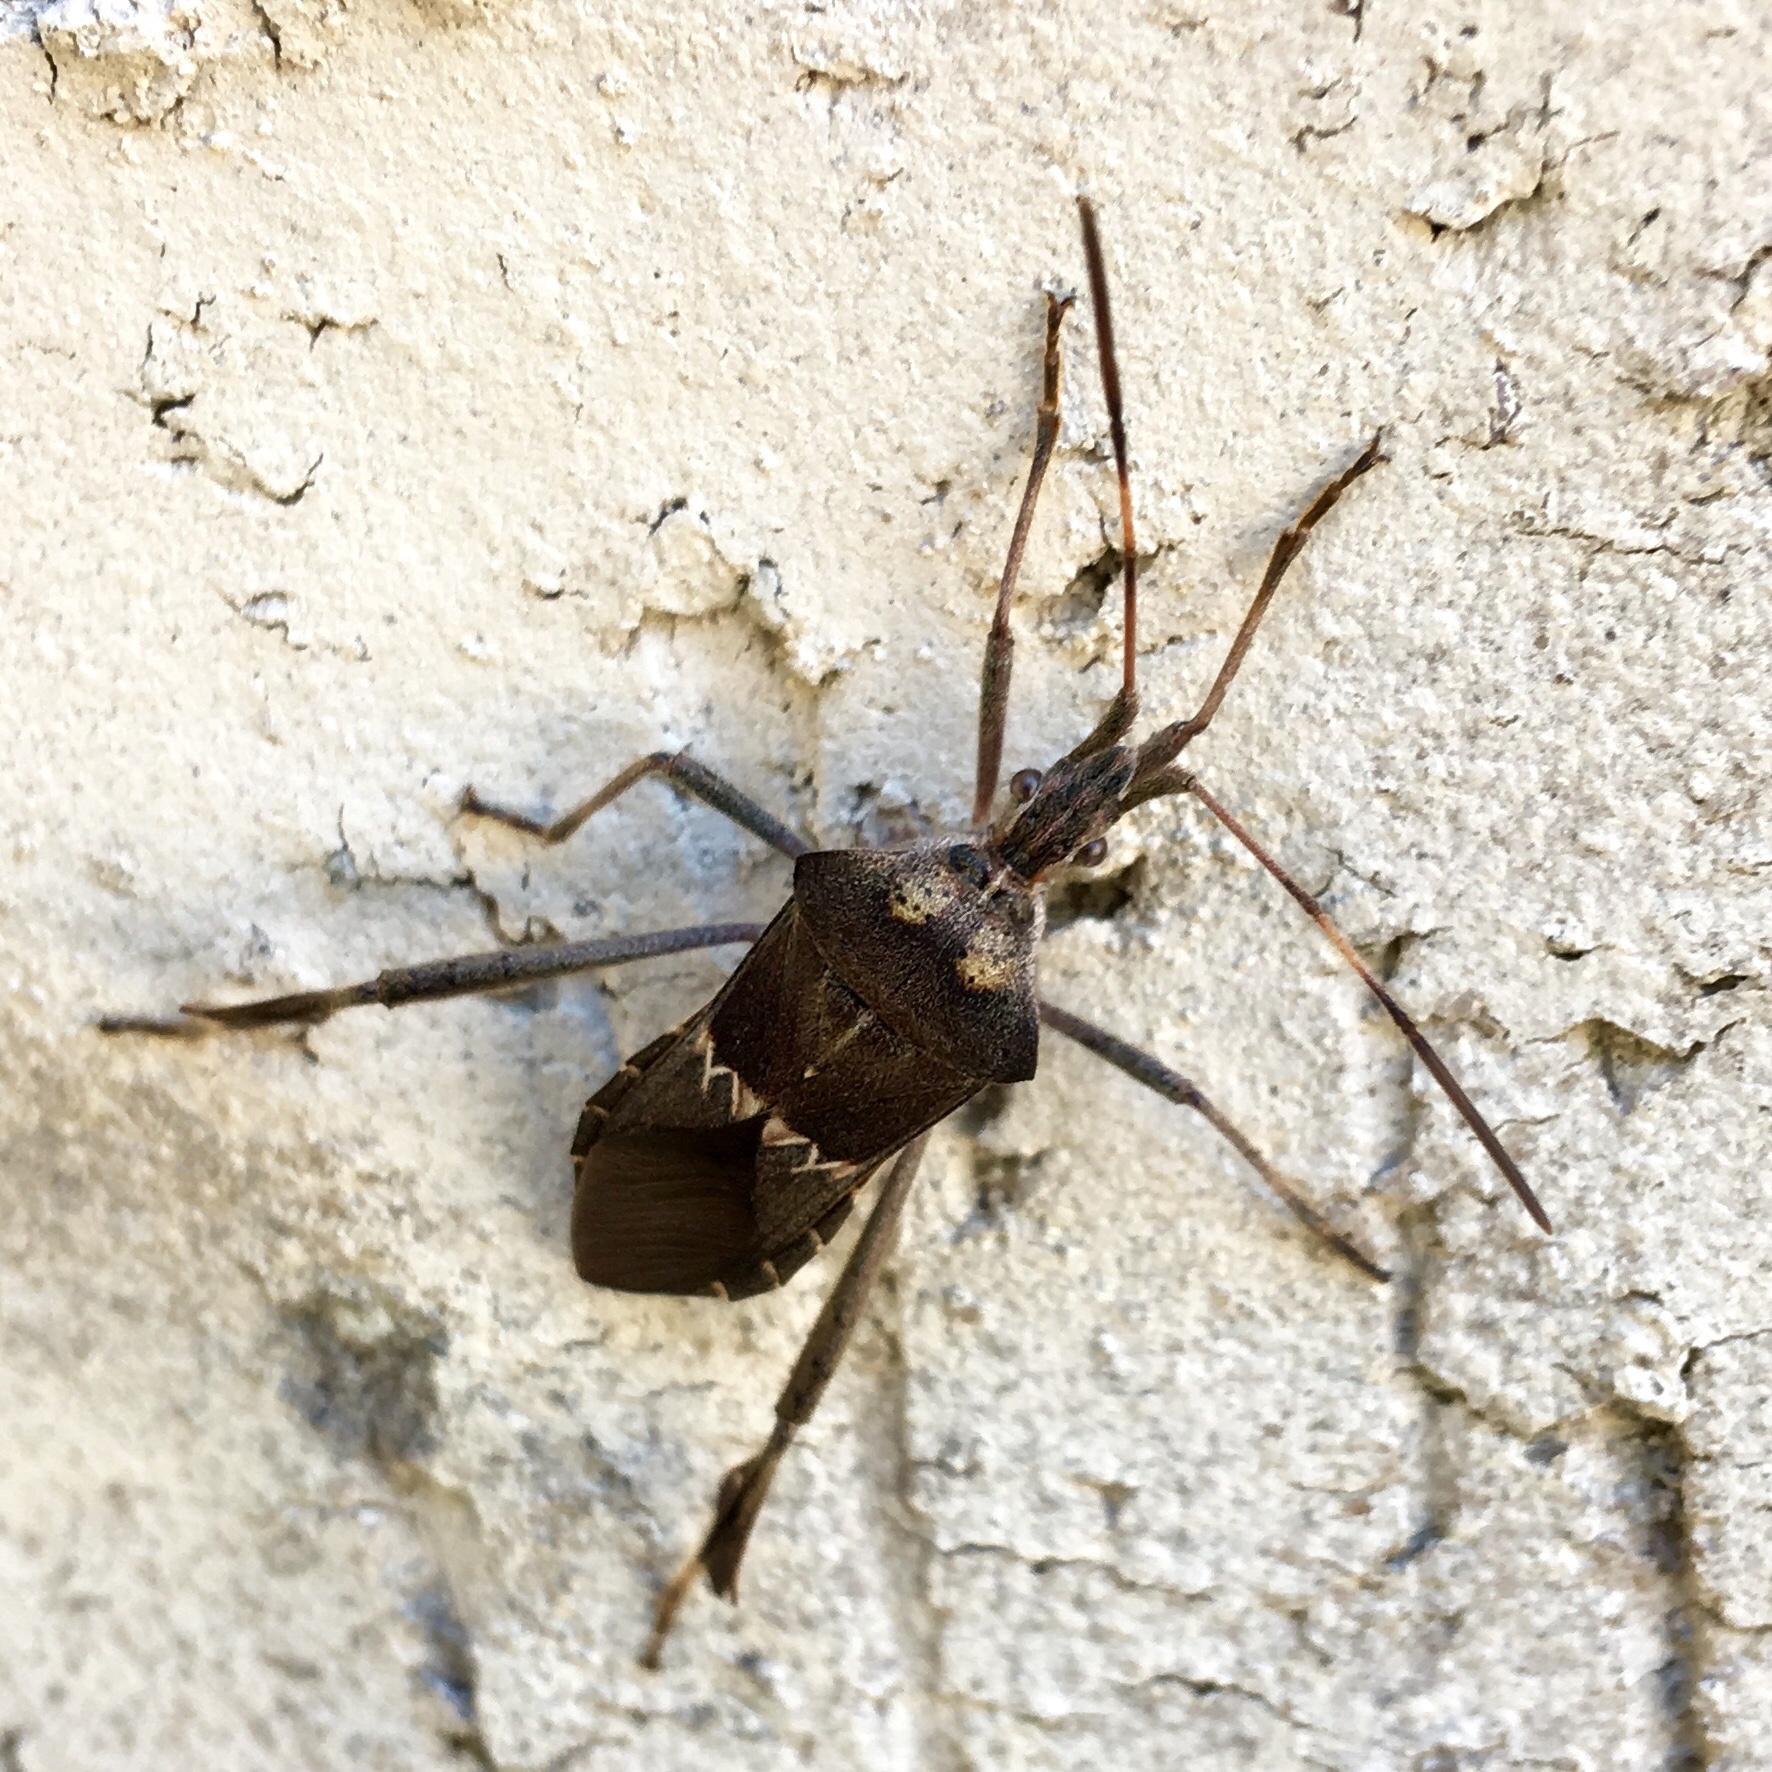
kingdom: Animalia
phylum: Arthropoda
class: Insecta
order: Hemiptera
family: Coreidae
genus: Leptoglossus
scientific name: Leptoglossus zonatus
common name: Large-legged bug
